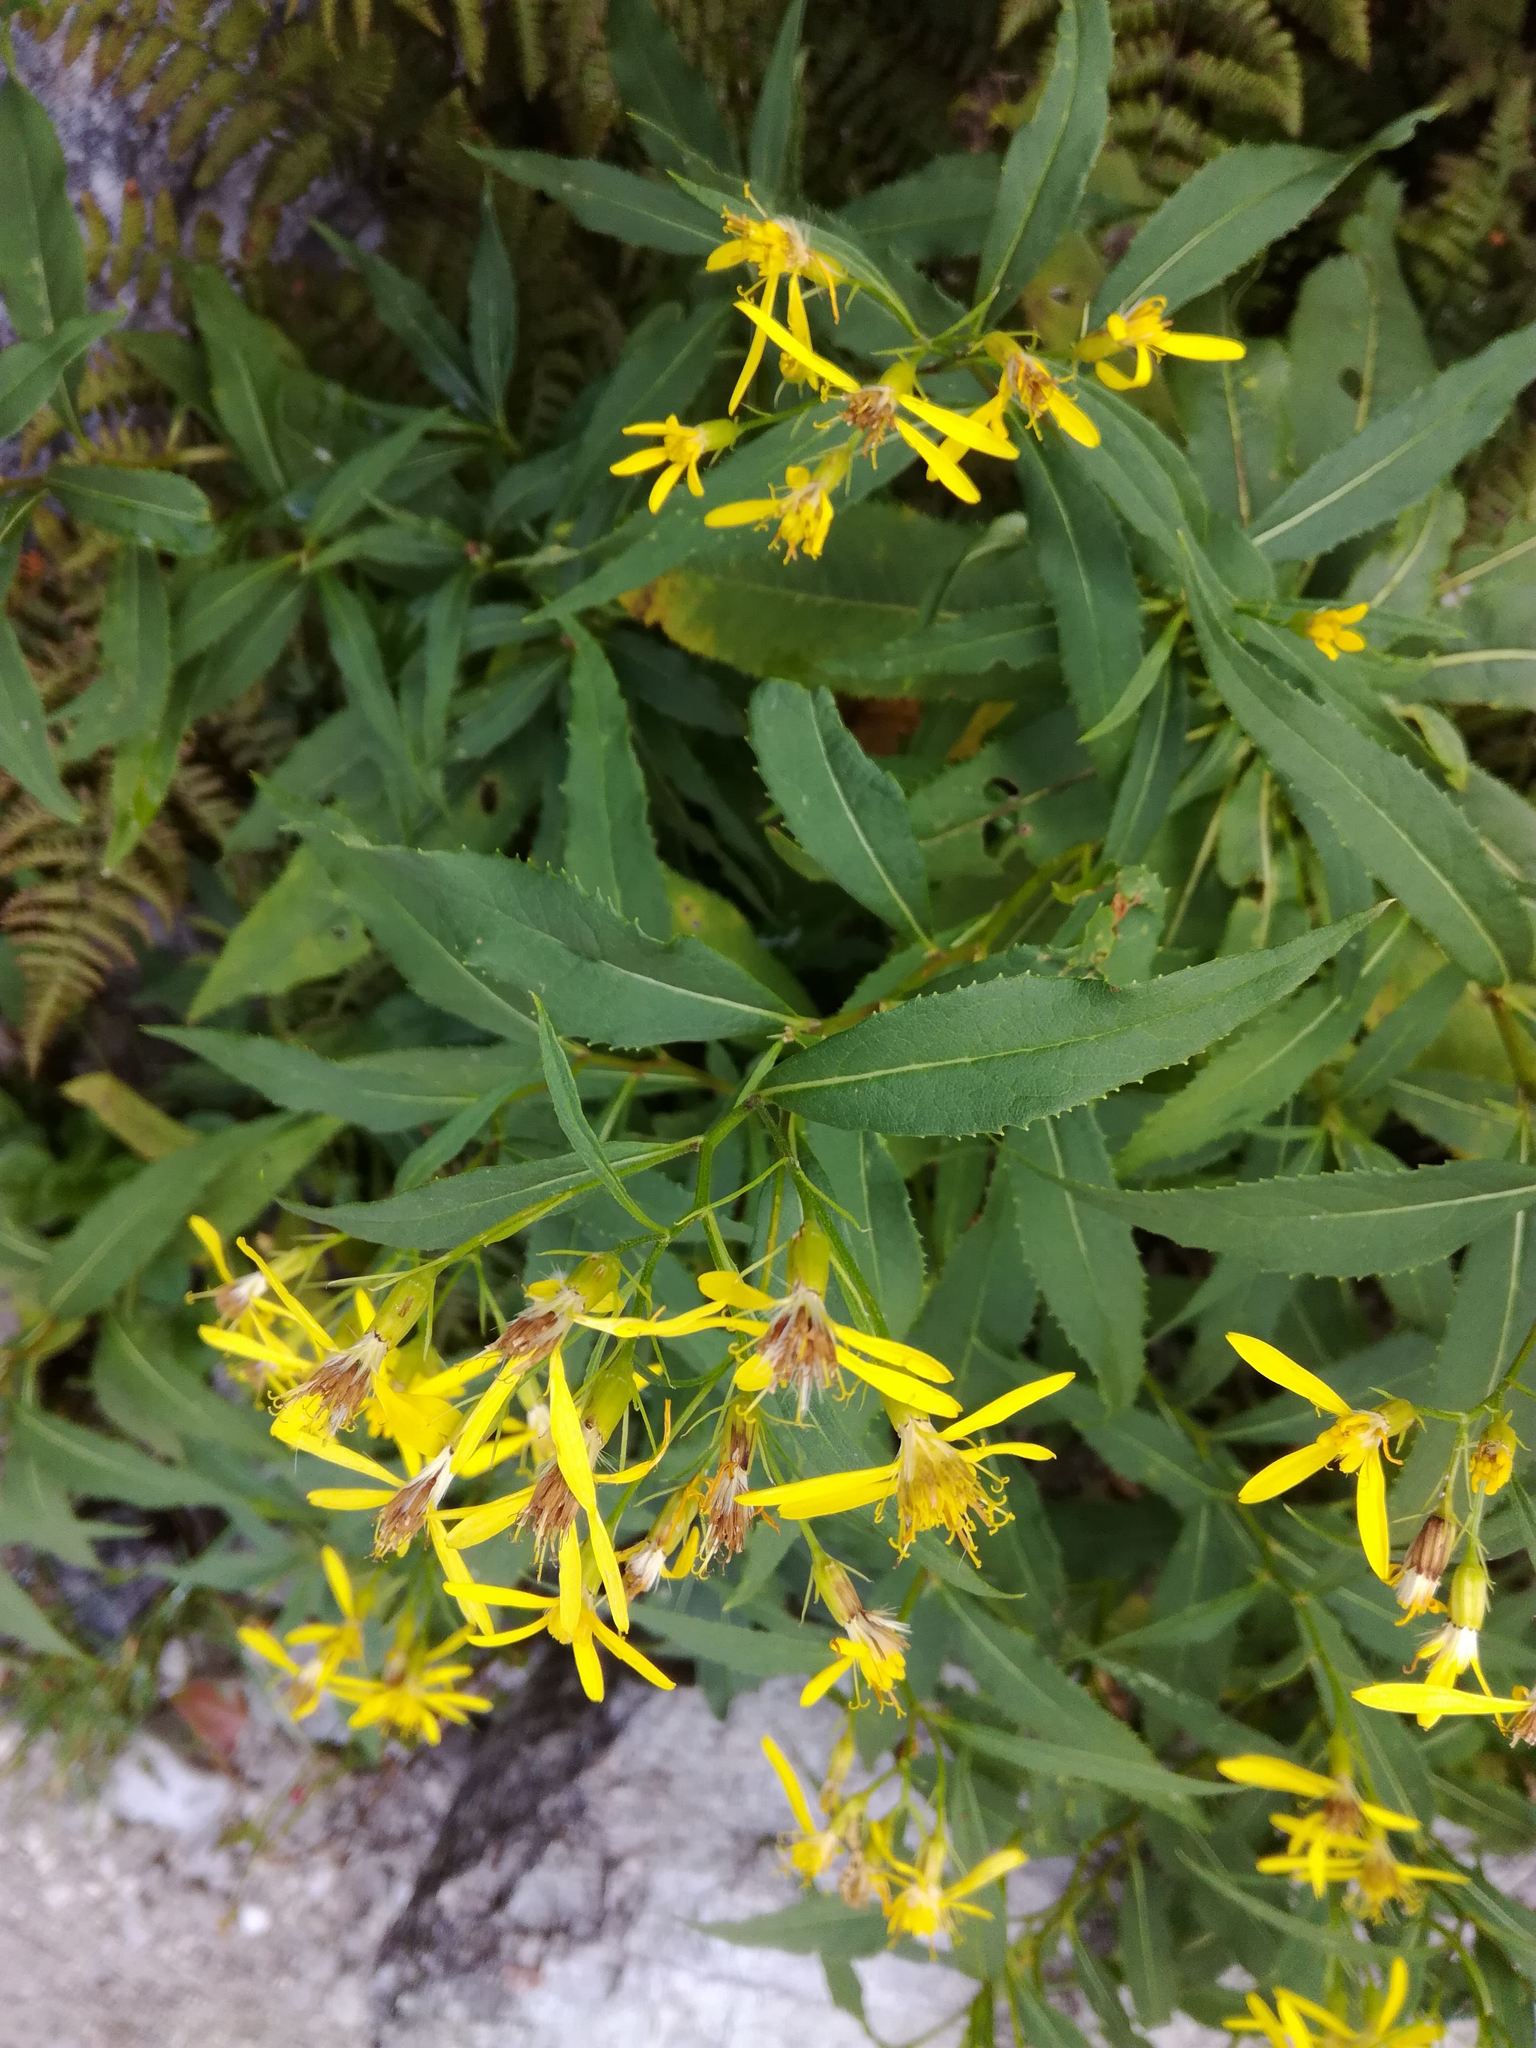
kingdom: Plantae
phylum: Tracheophyta
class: Magnoliopsida
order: Asterales
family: Asteraceae
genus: Senecio
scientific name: Senecio ovatus
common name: Wood ragwort
